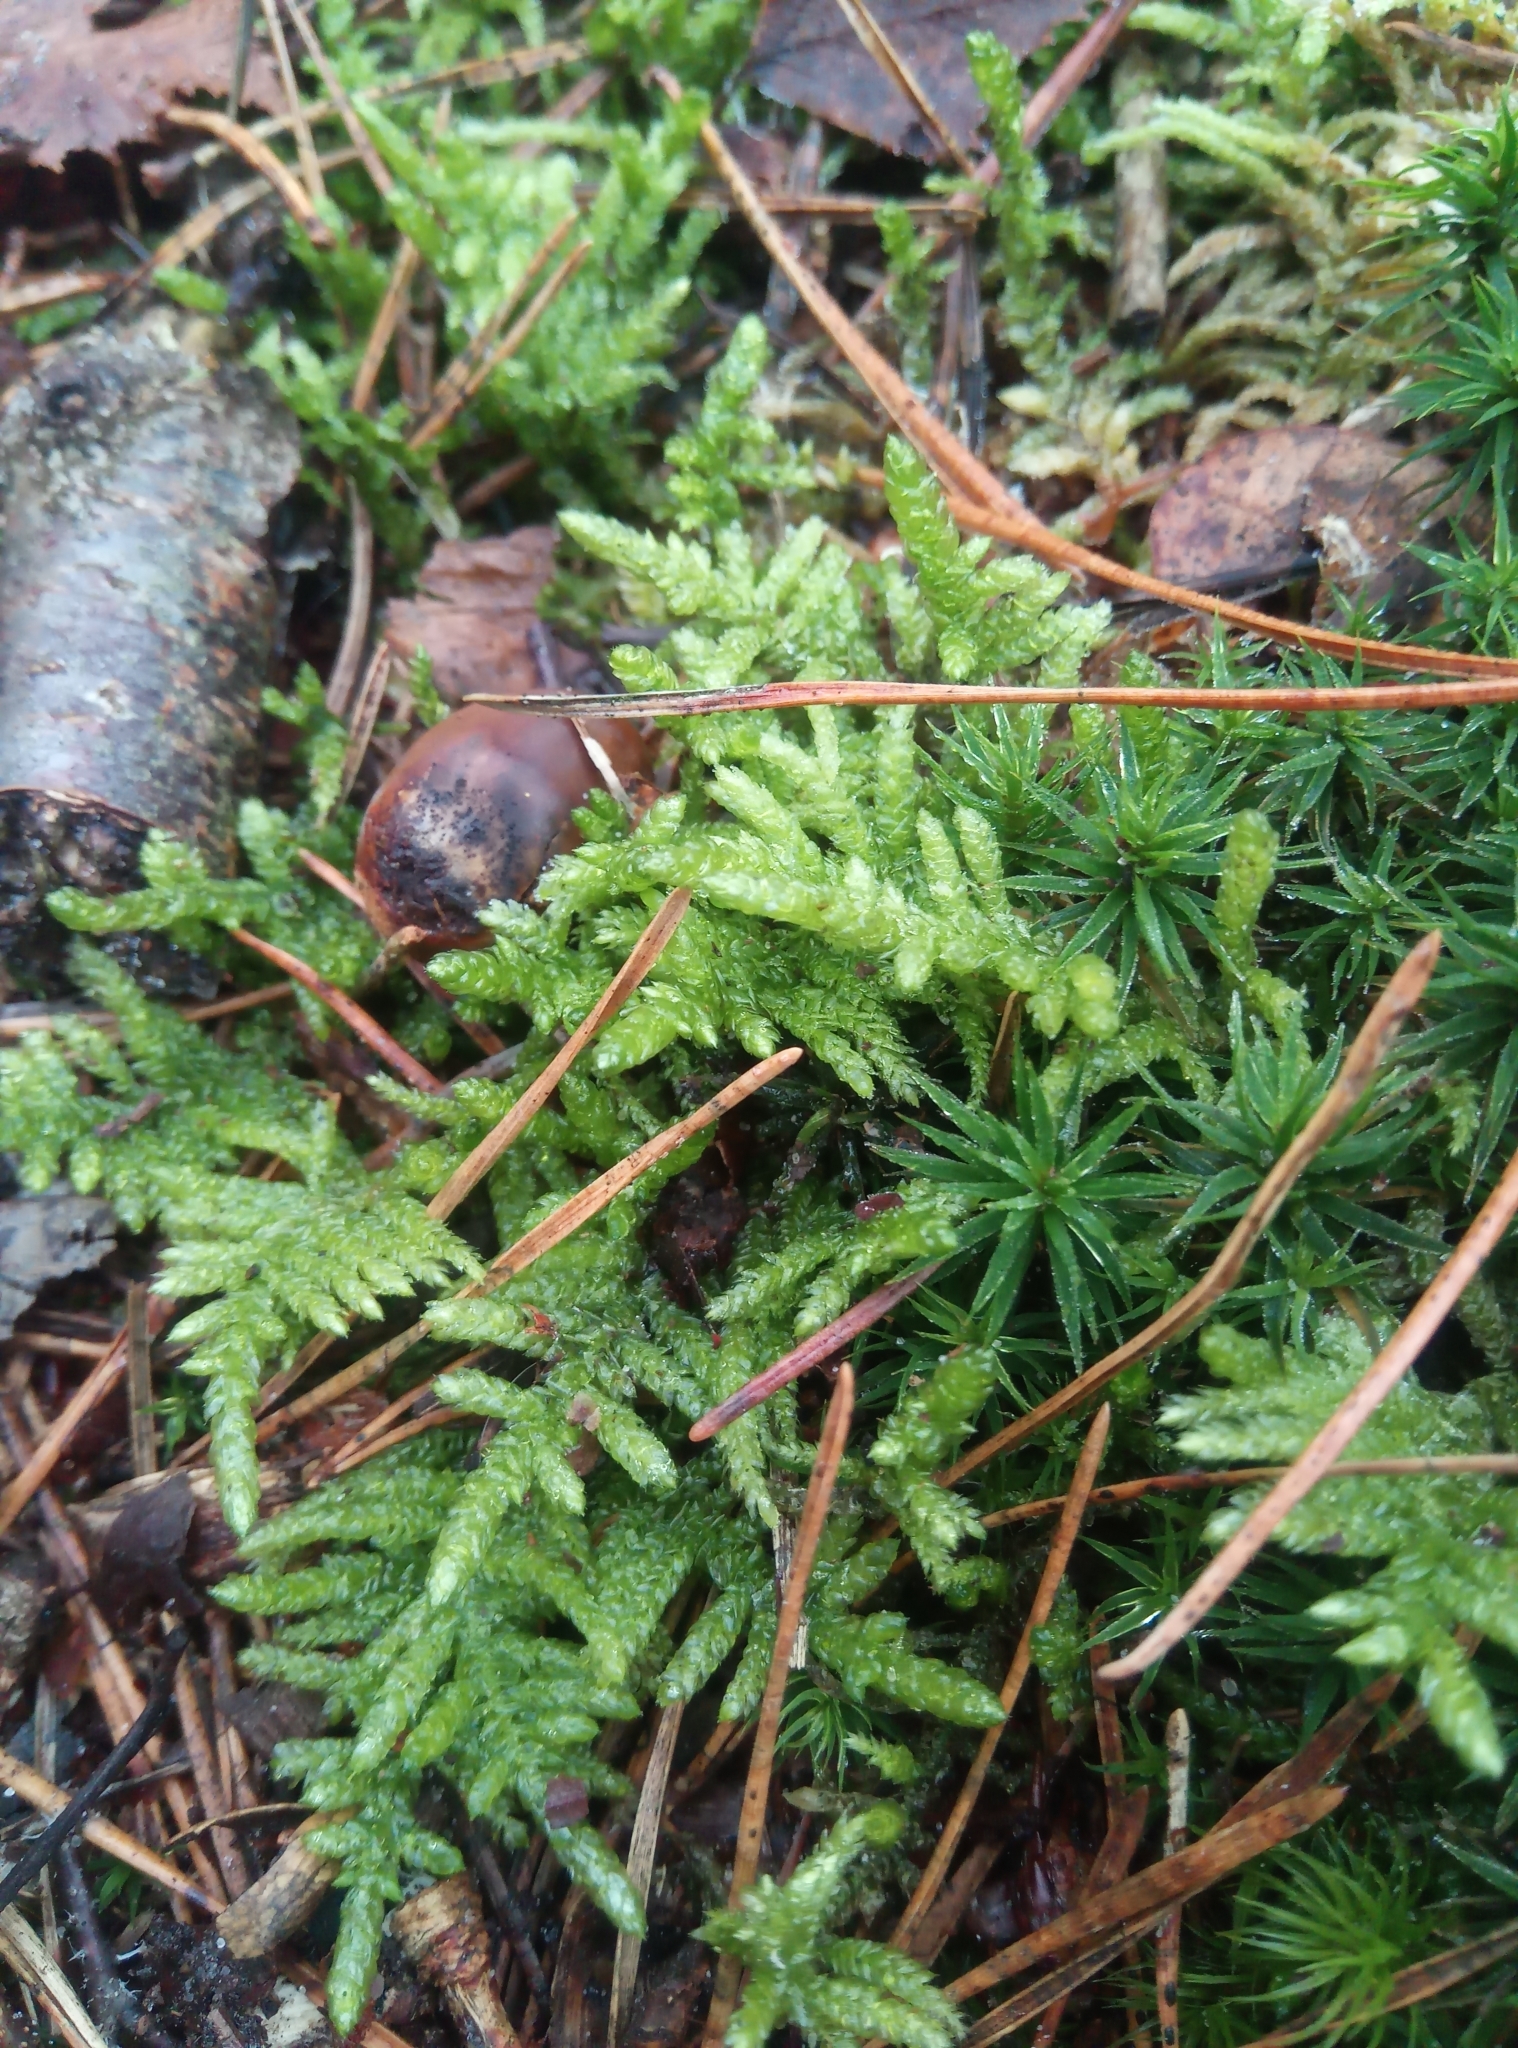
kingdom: Plantae
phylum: Bryophyta
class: Bryopsida
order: Hypnales
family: Brachytheciaceae
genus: Pseudoscleropodium
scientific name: Pseudoscleropodium purum
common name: Neat feather-moss
